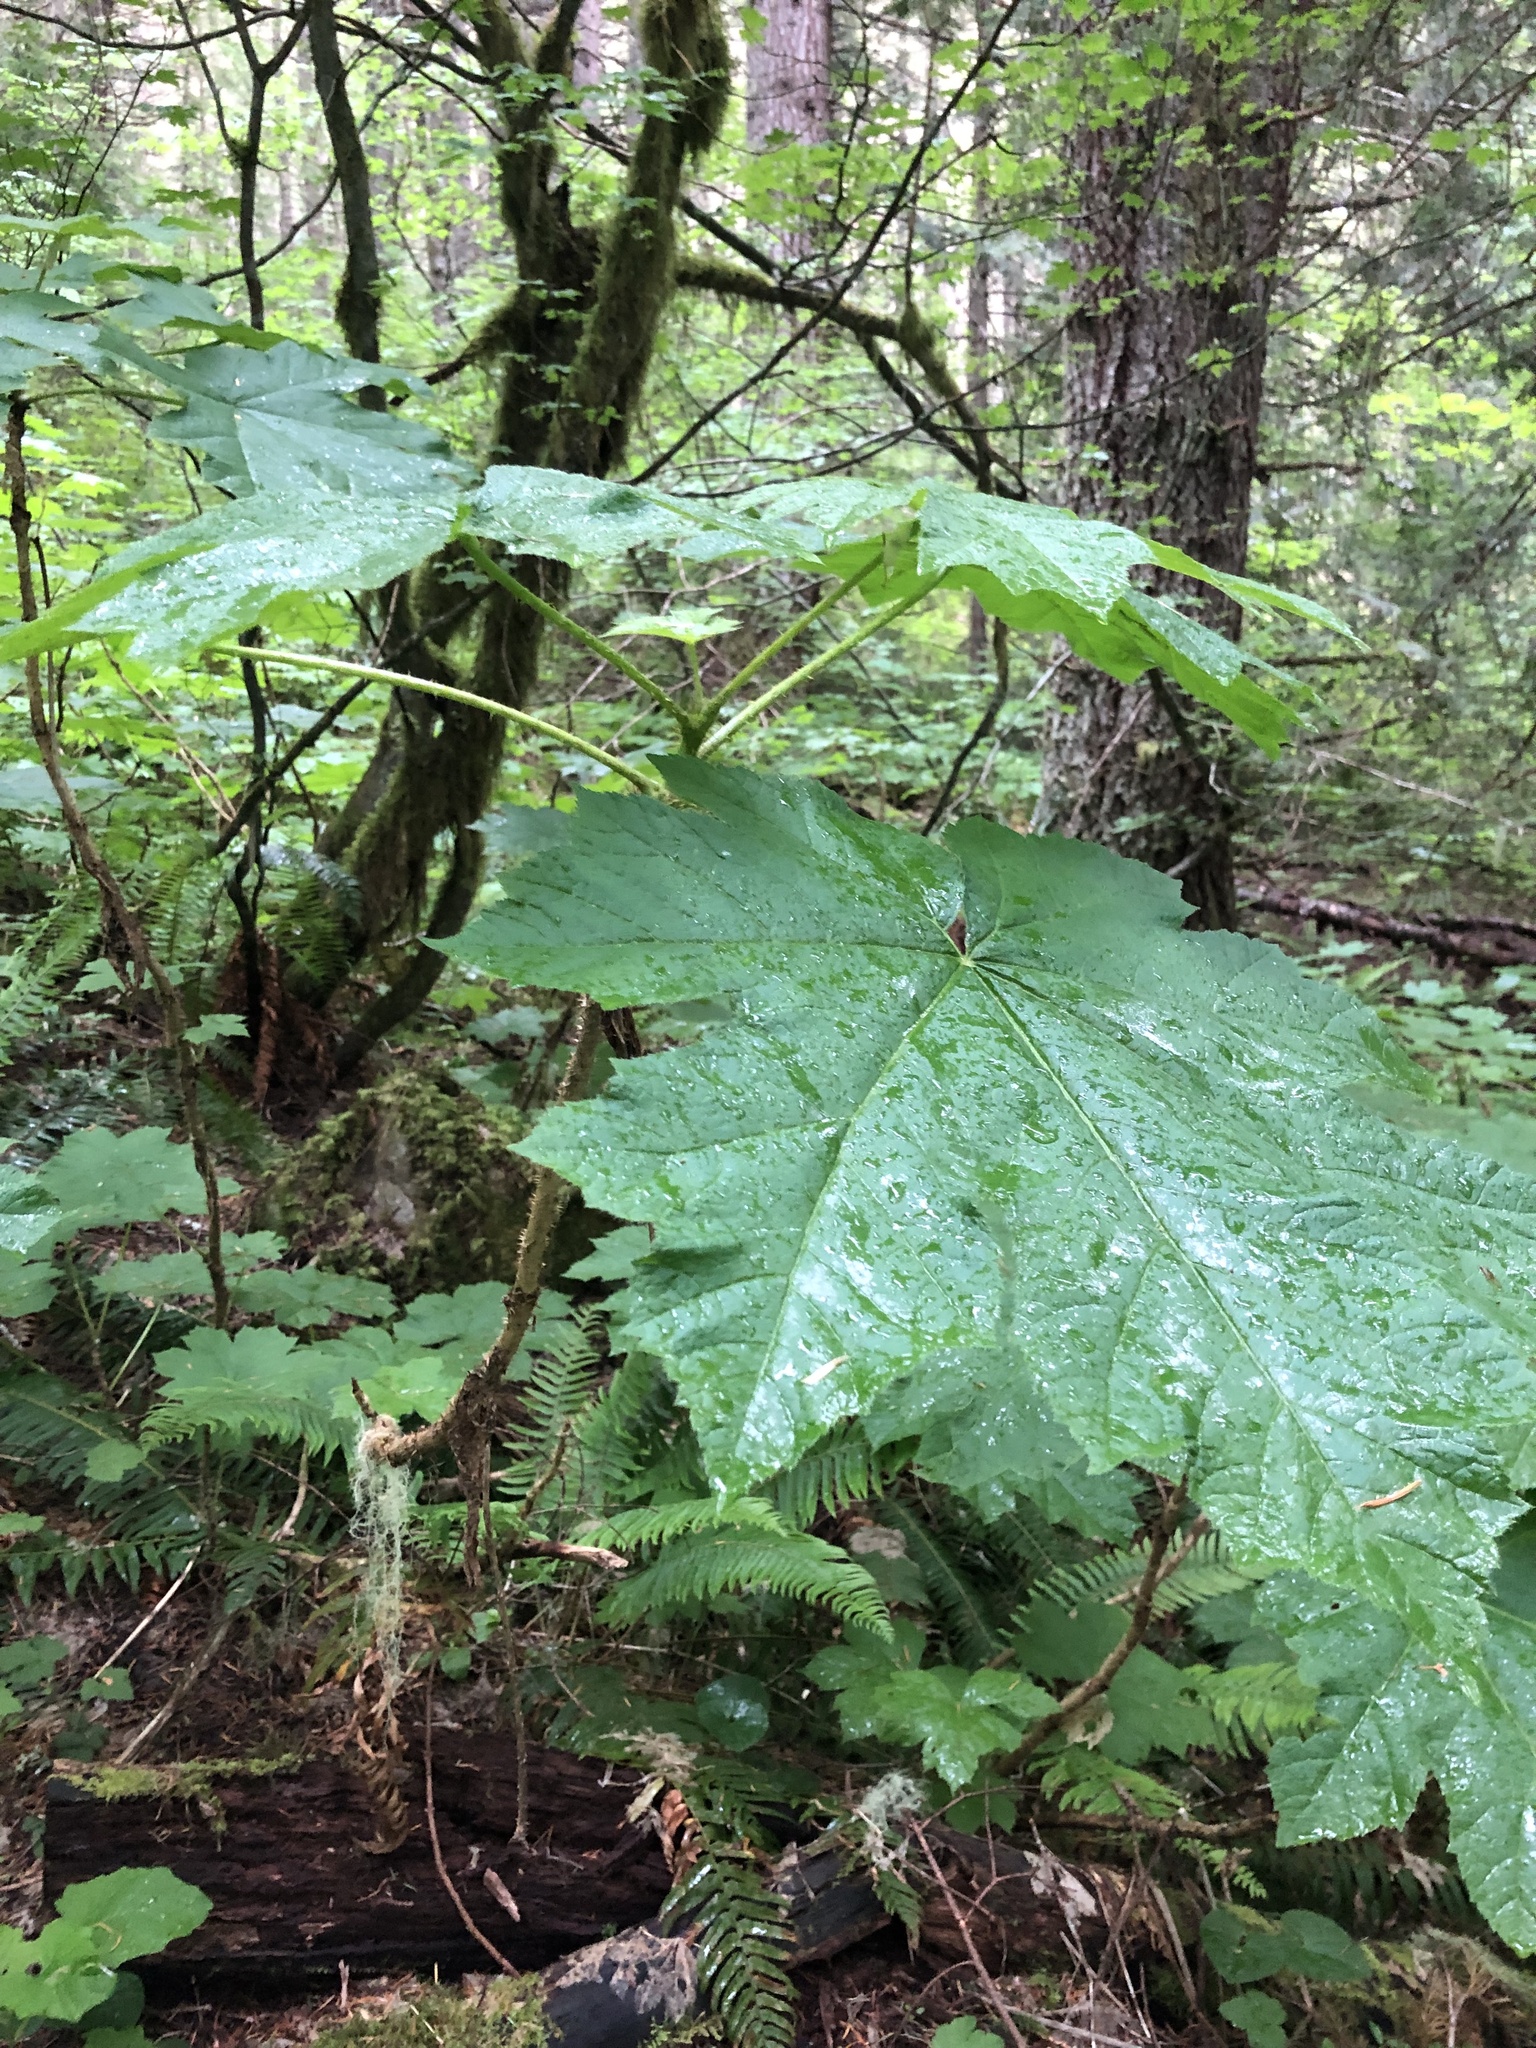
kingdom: Plantae
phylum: Tracheophyta
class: Magnoliopsida
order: Apiales
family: Araliaceae
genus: Oplopanax
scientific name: Oplopanax horridus
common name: Devil's walking-stick
